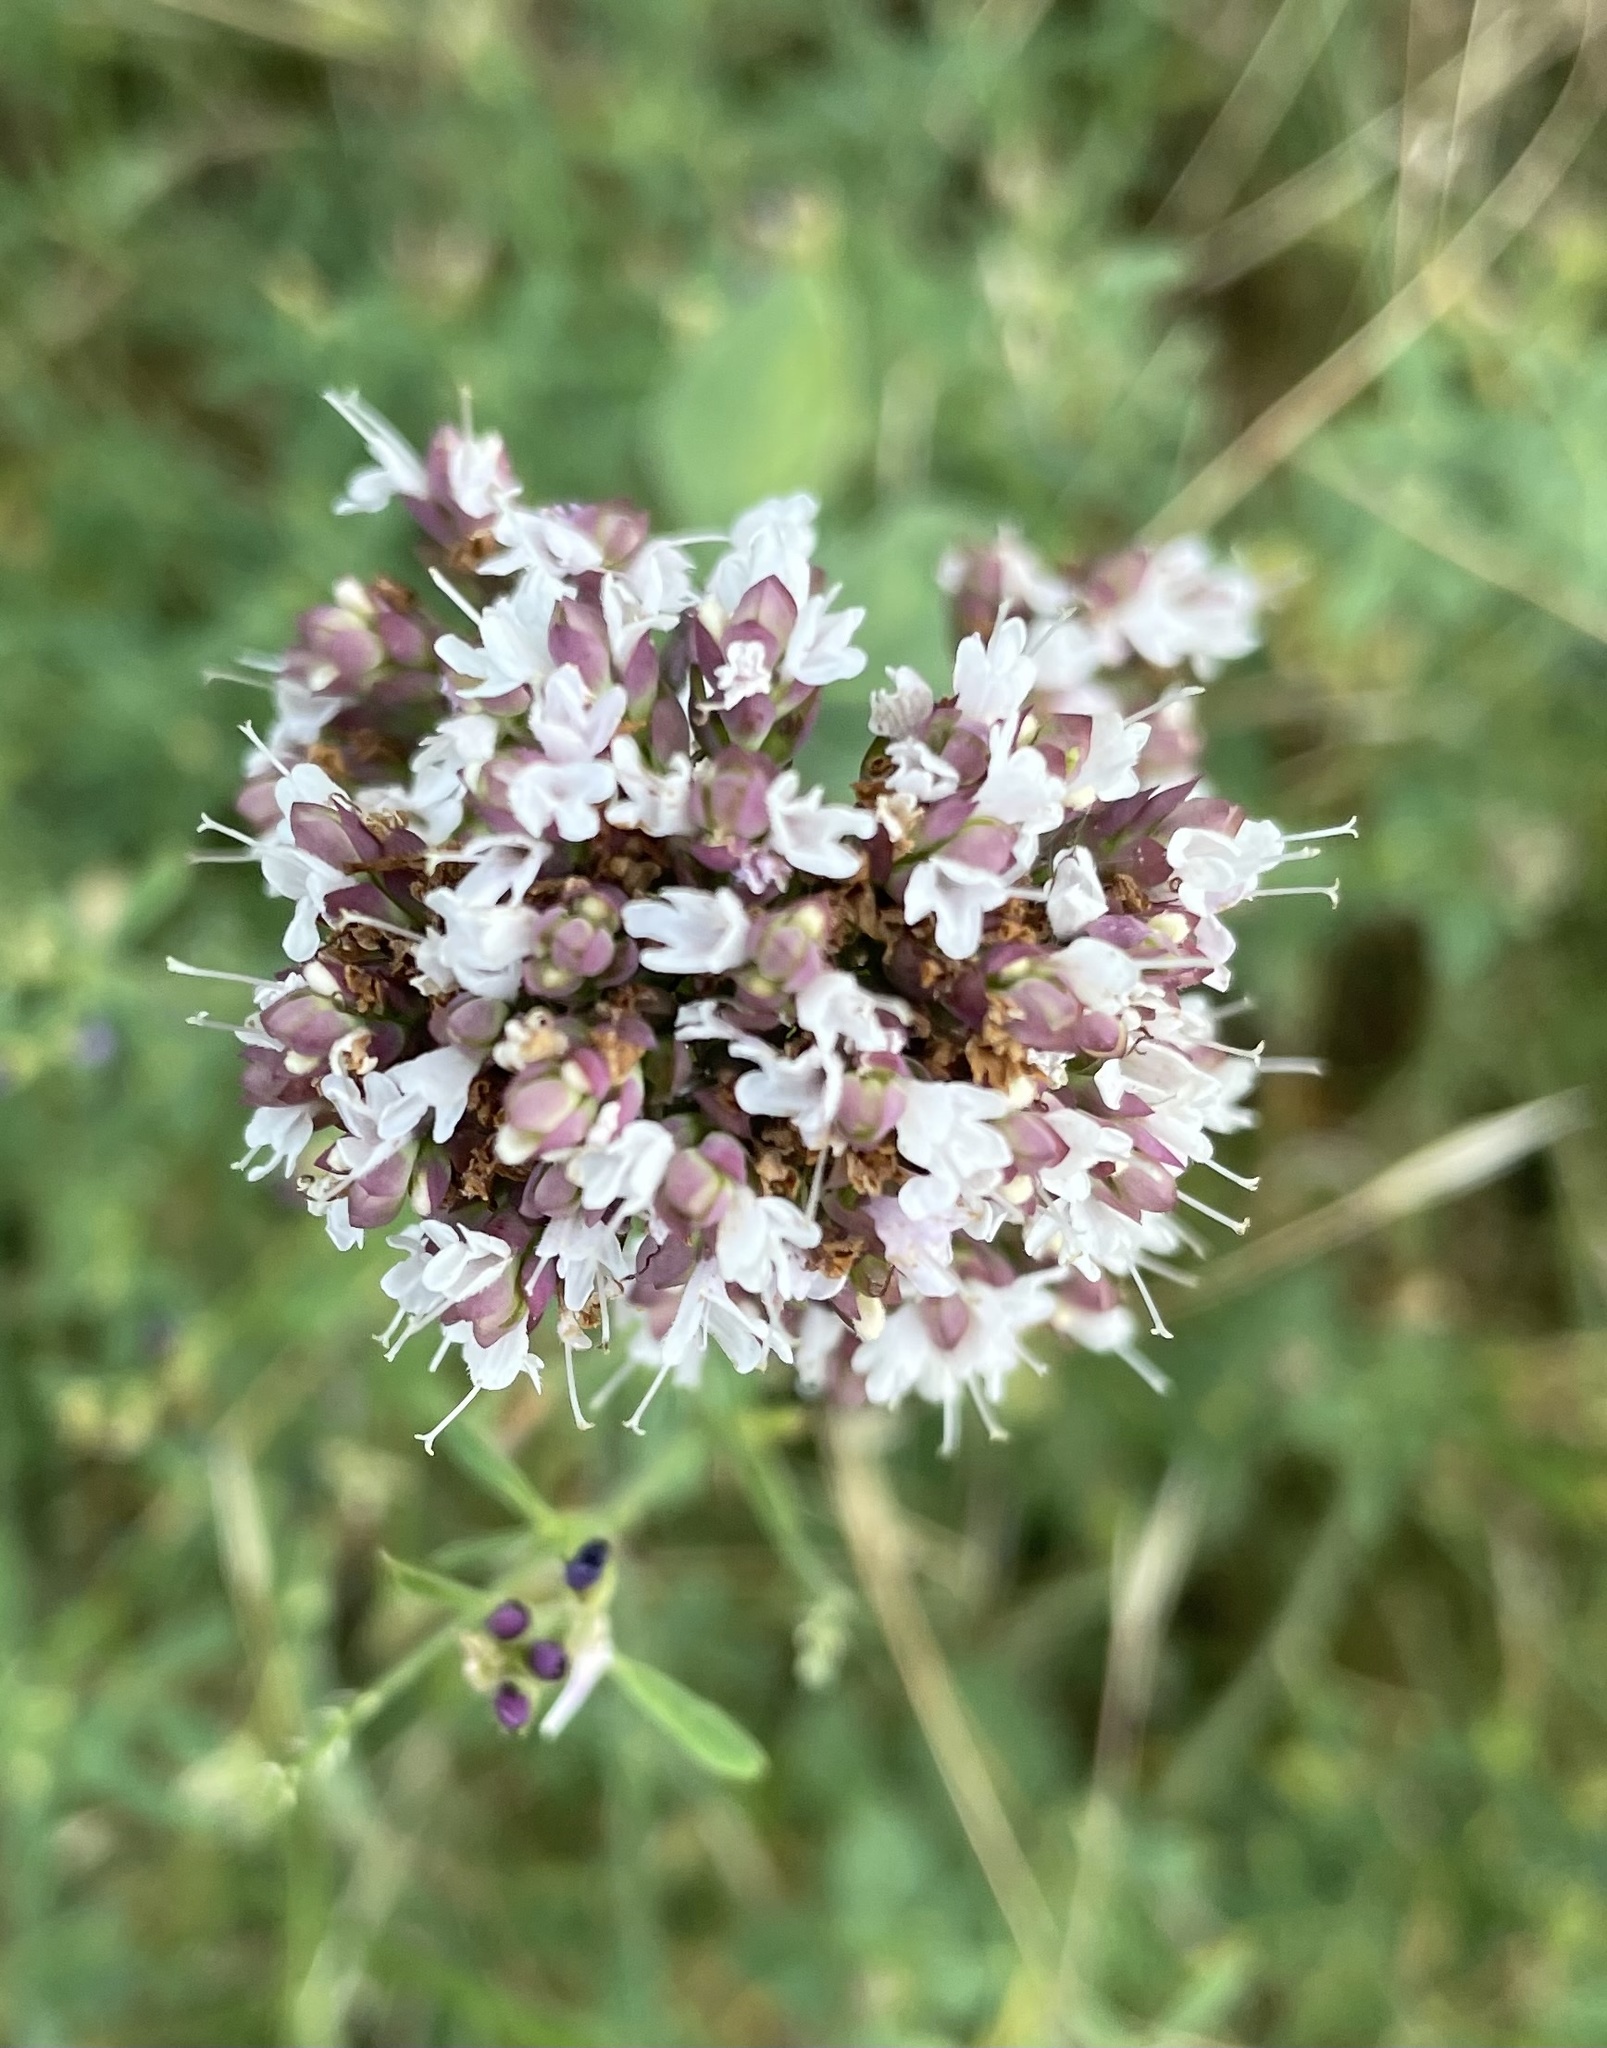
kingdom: Plantae
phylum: Tracheophyta
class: Magnoliopsida
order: Lamiales
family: Lamiaceae
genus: Origanum
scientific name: Origanum vulgare
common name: Wild marjoram
